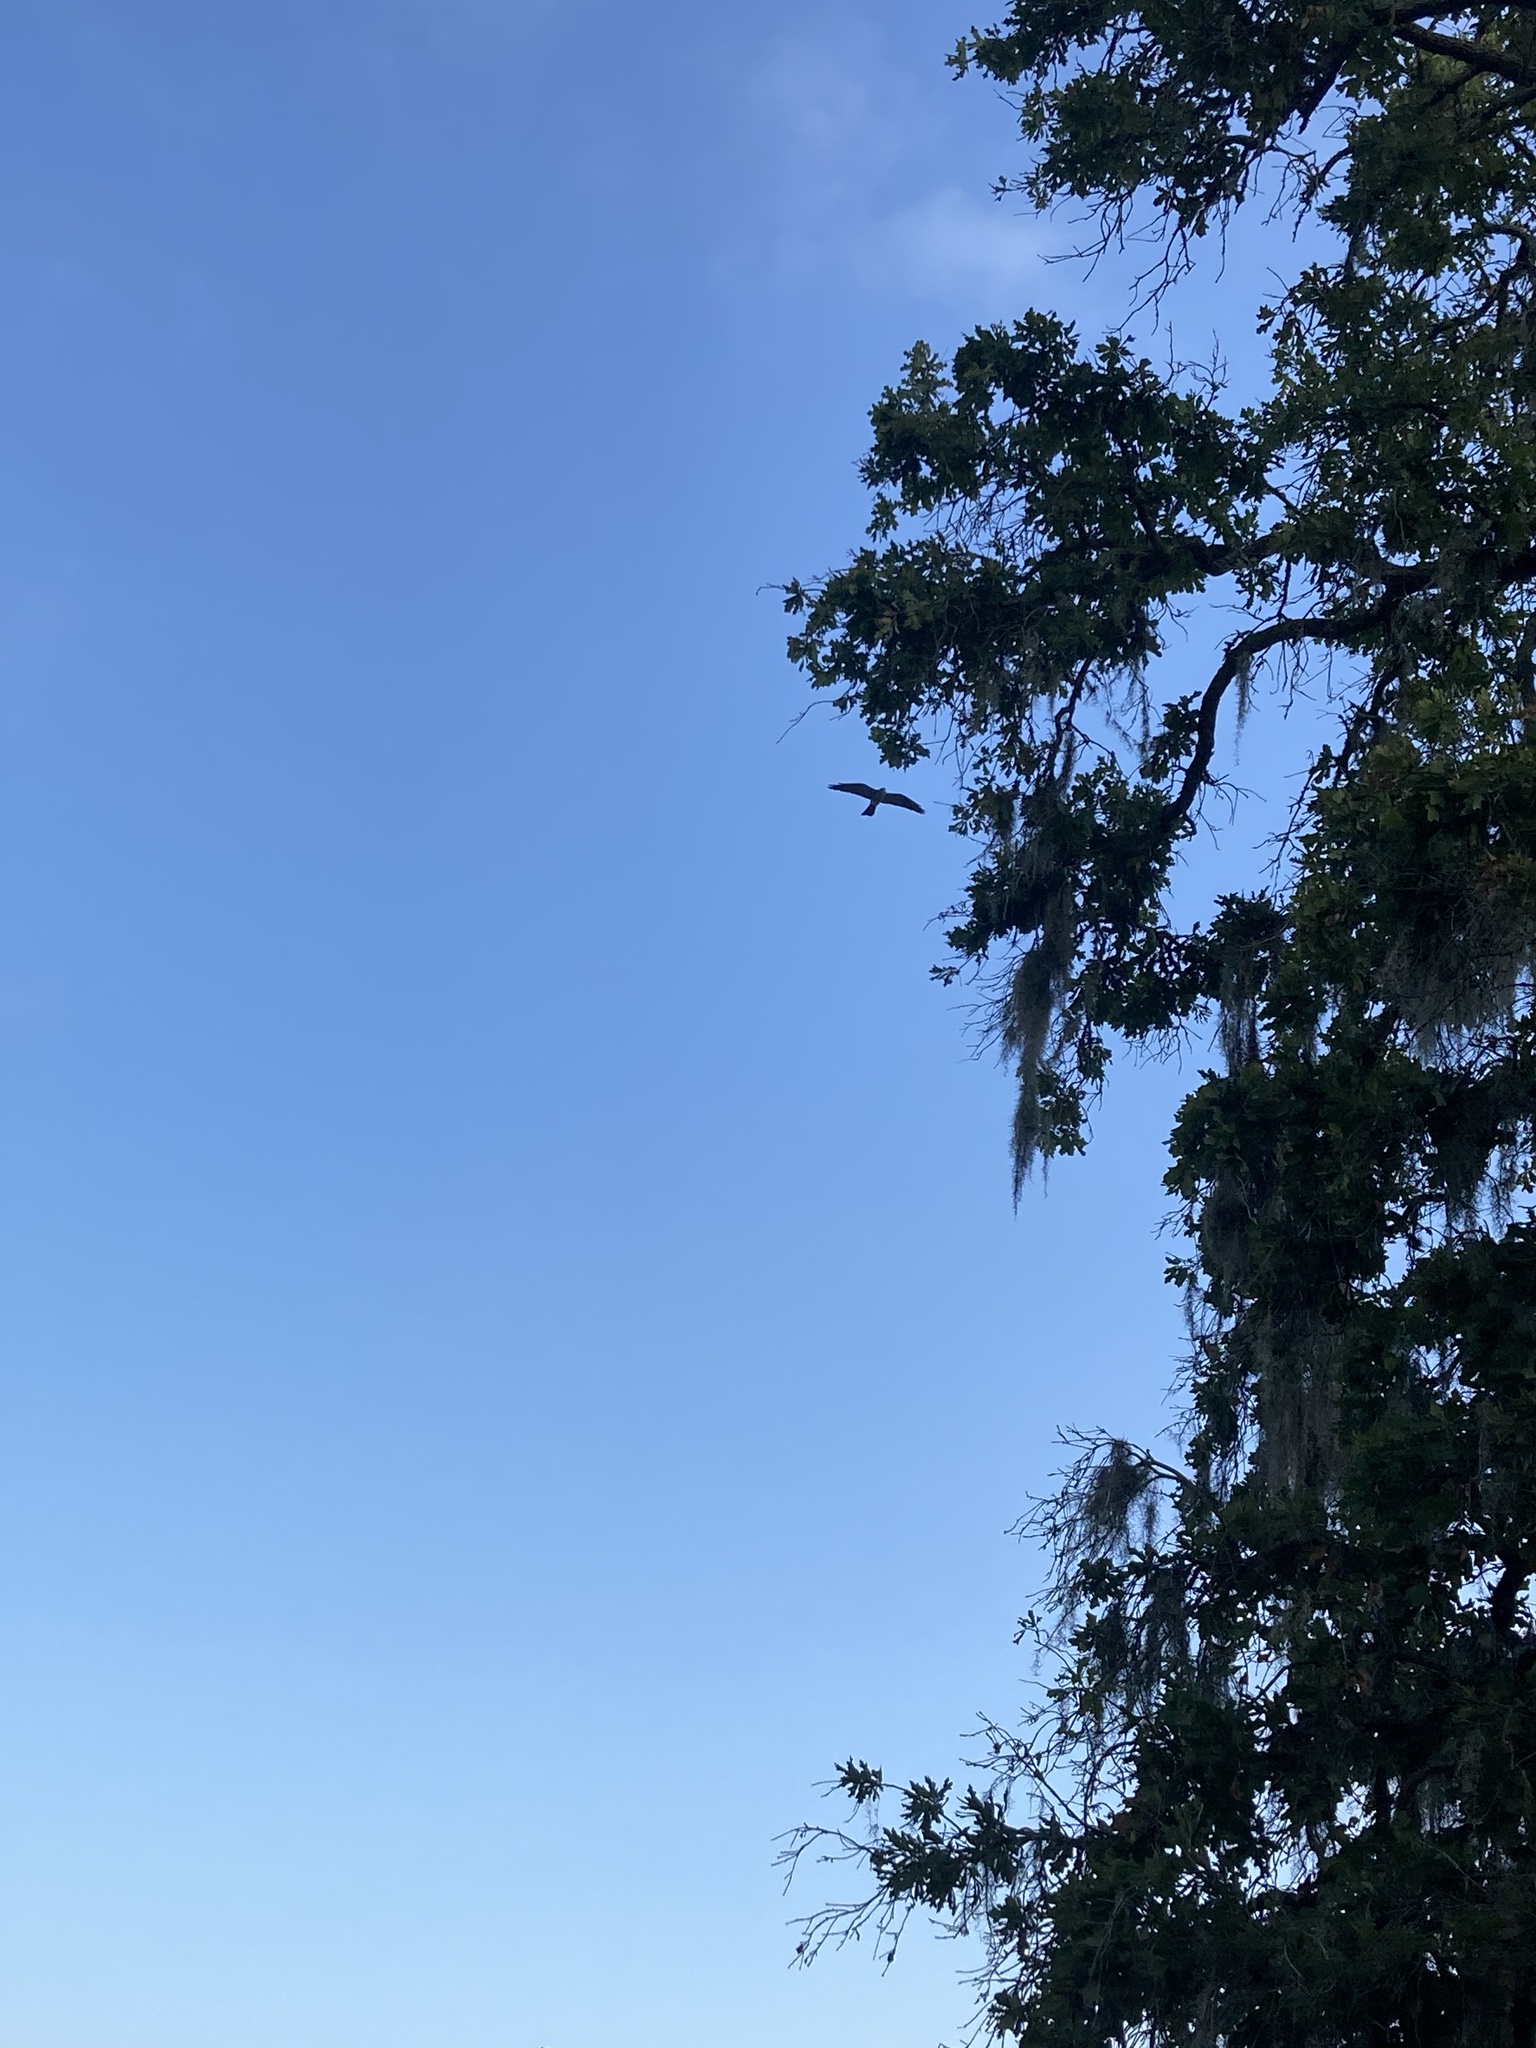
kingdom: Animalia
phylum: Chordata
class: Aves
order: Accipitriformes
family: Accipitridae
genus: Ictinia
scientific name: Ictinia mississippiensis
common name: Mississippi kite
